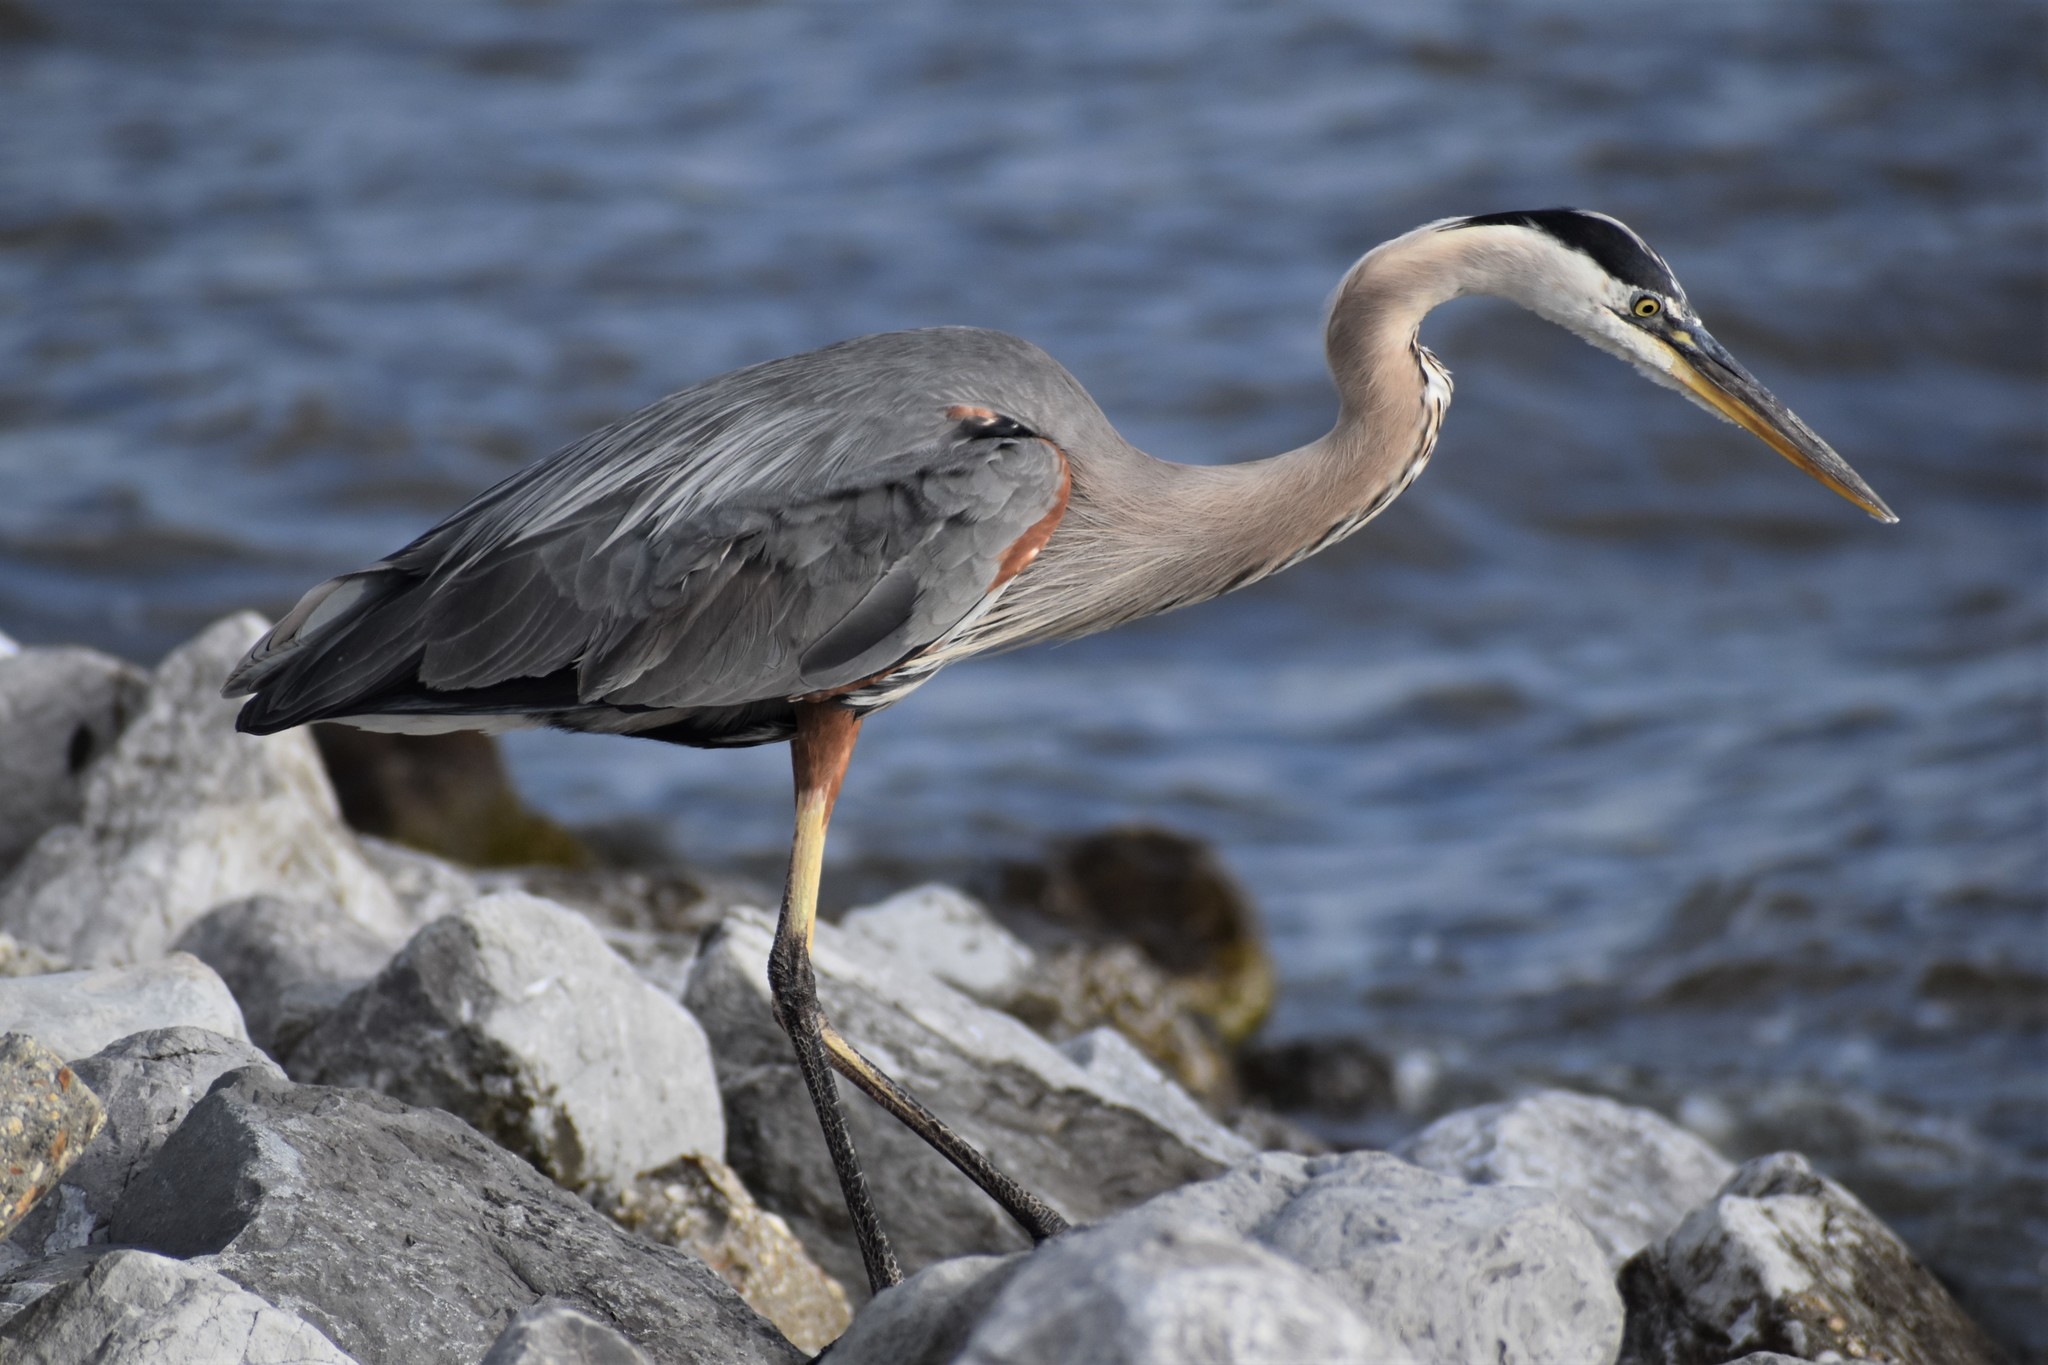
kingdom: Animalia
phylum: Chordata
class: Aves
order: Pelecaniformes
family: Ardeidae
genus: Ardea
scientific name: Ardea herodias
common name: Great blue heron
